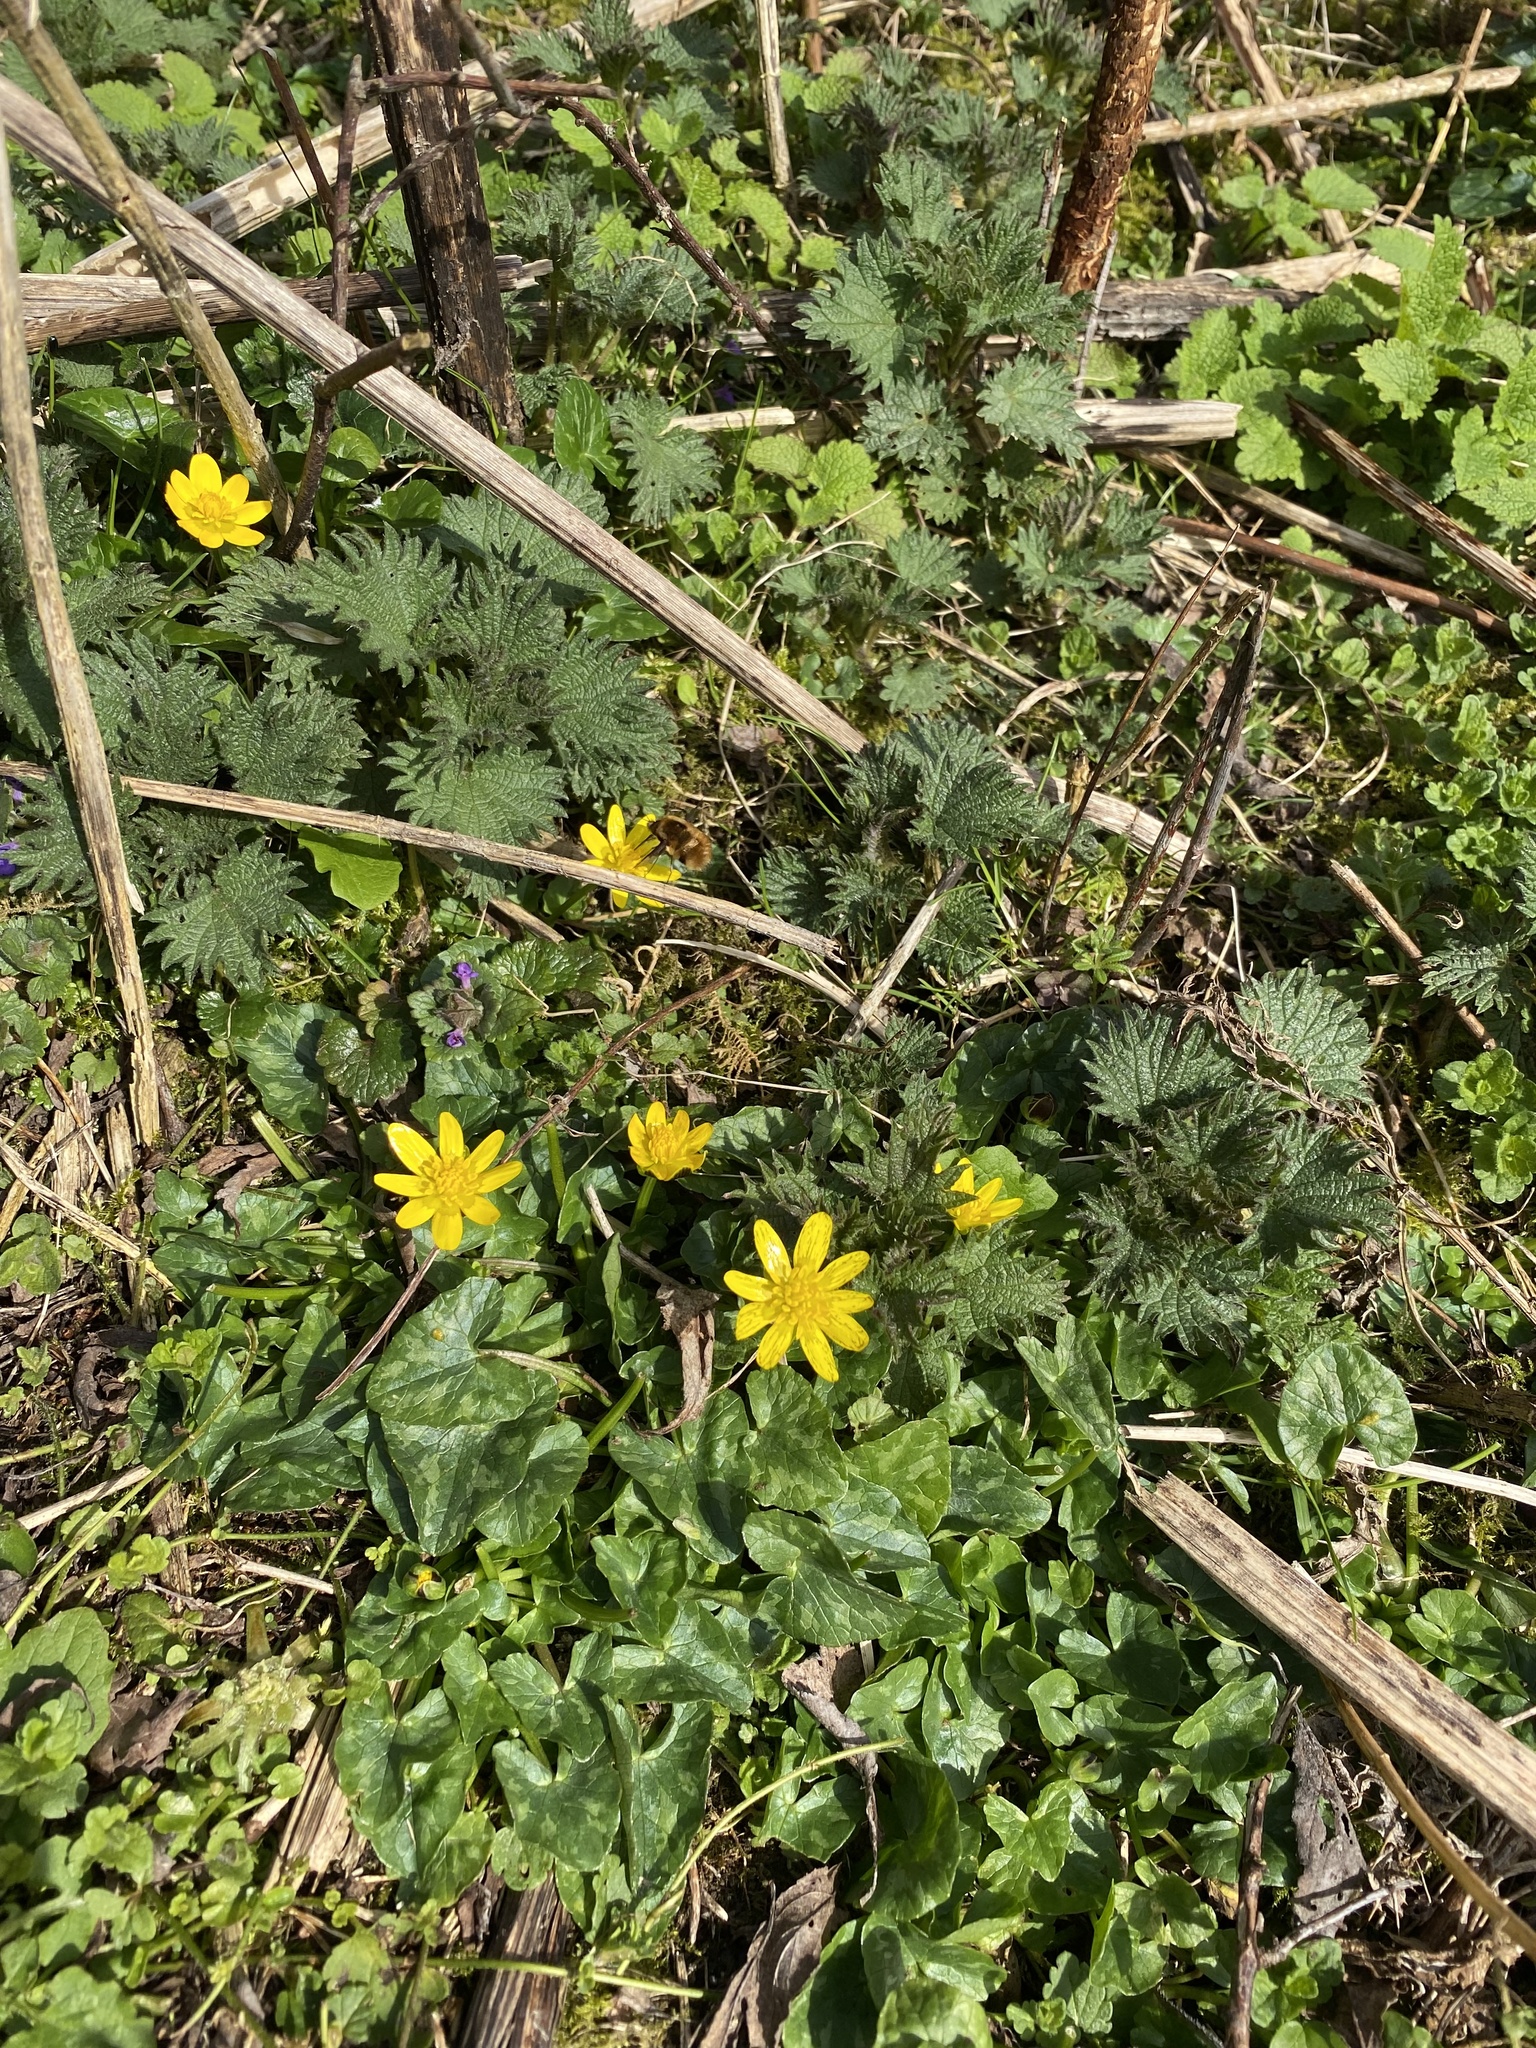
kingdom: Plantae
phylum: Tracheophyta
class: Magnoliopsida
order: Ranunculales
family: Ranunculaceae
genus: Ficaria
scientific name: Ficaria verna
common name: Lesser celandine
